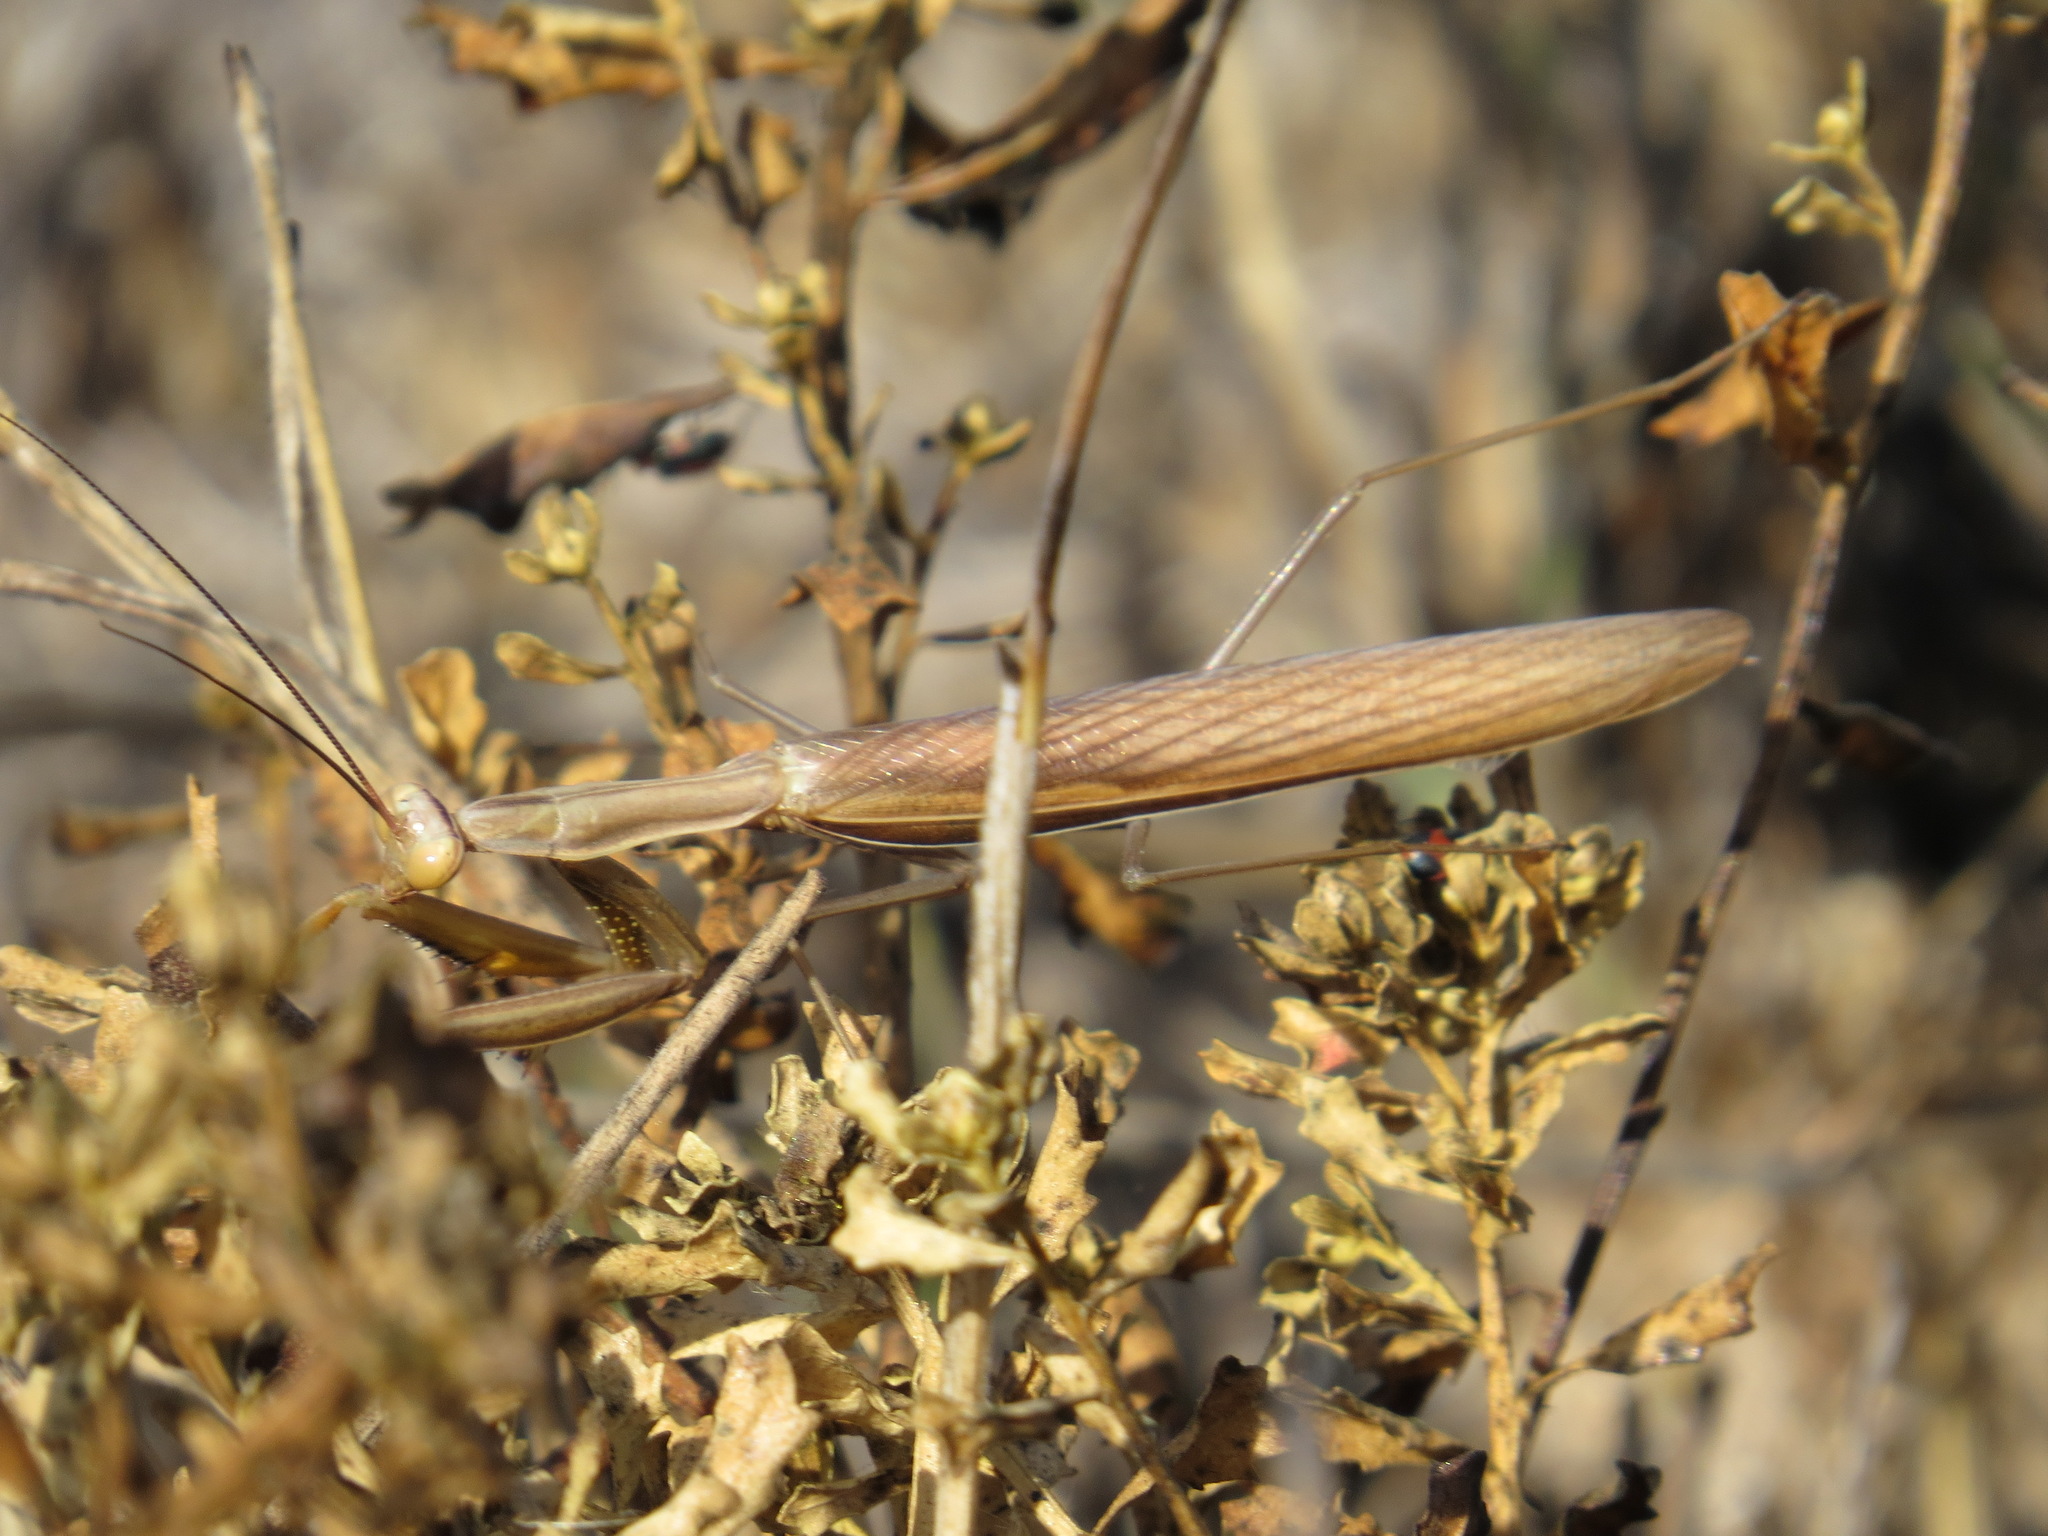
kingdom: Animalia
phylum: Arthropoda
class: Insecta
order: Mantodea
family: Mantidae
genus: Mantis
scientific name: Mantis religiosa
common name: Praying mantis
